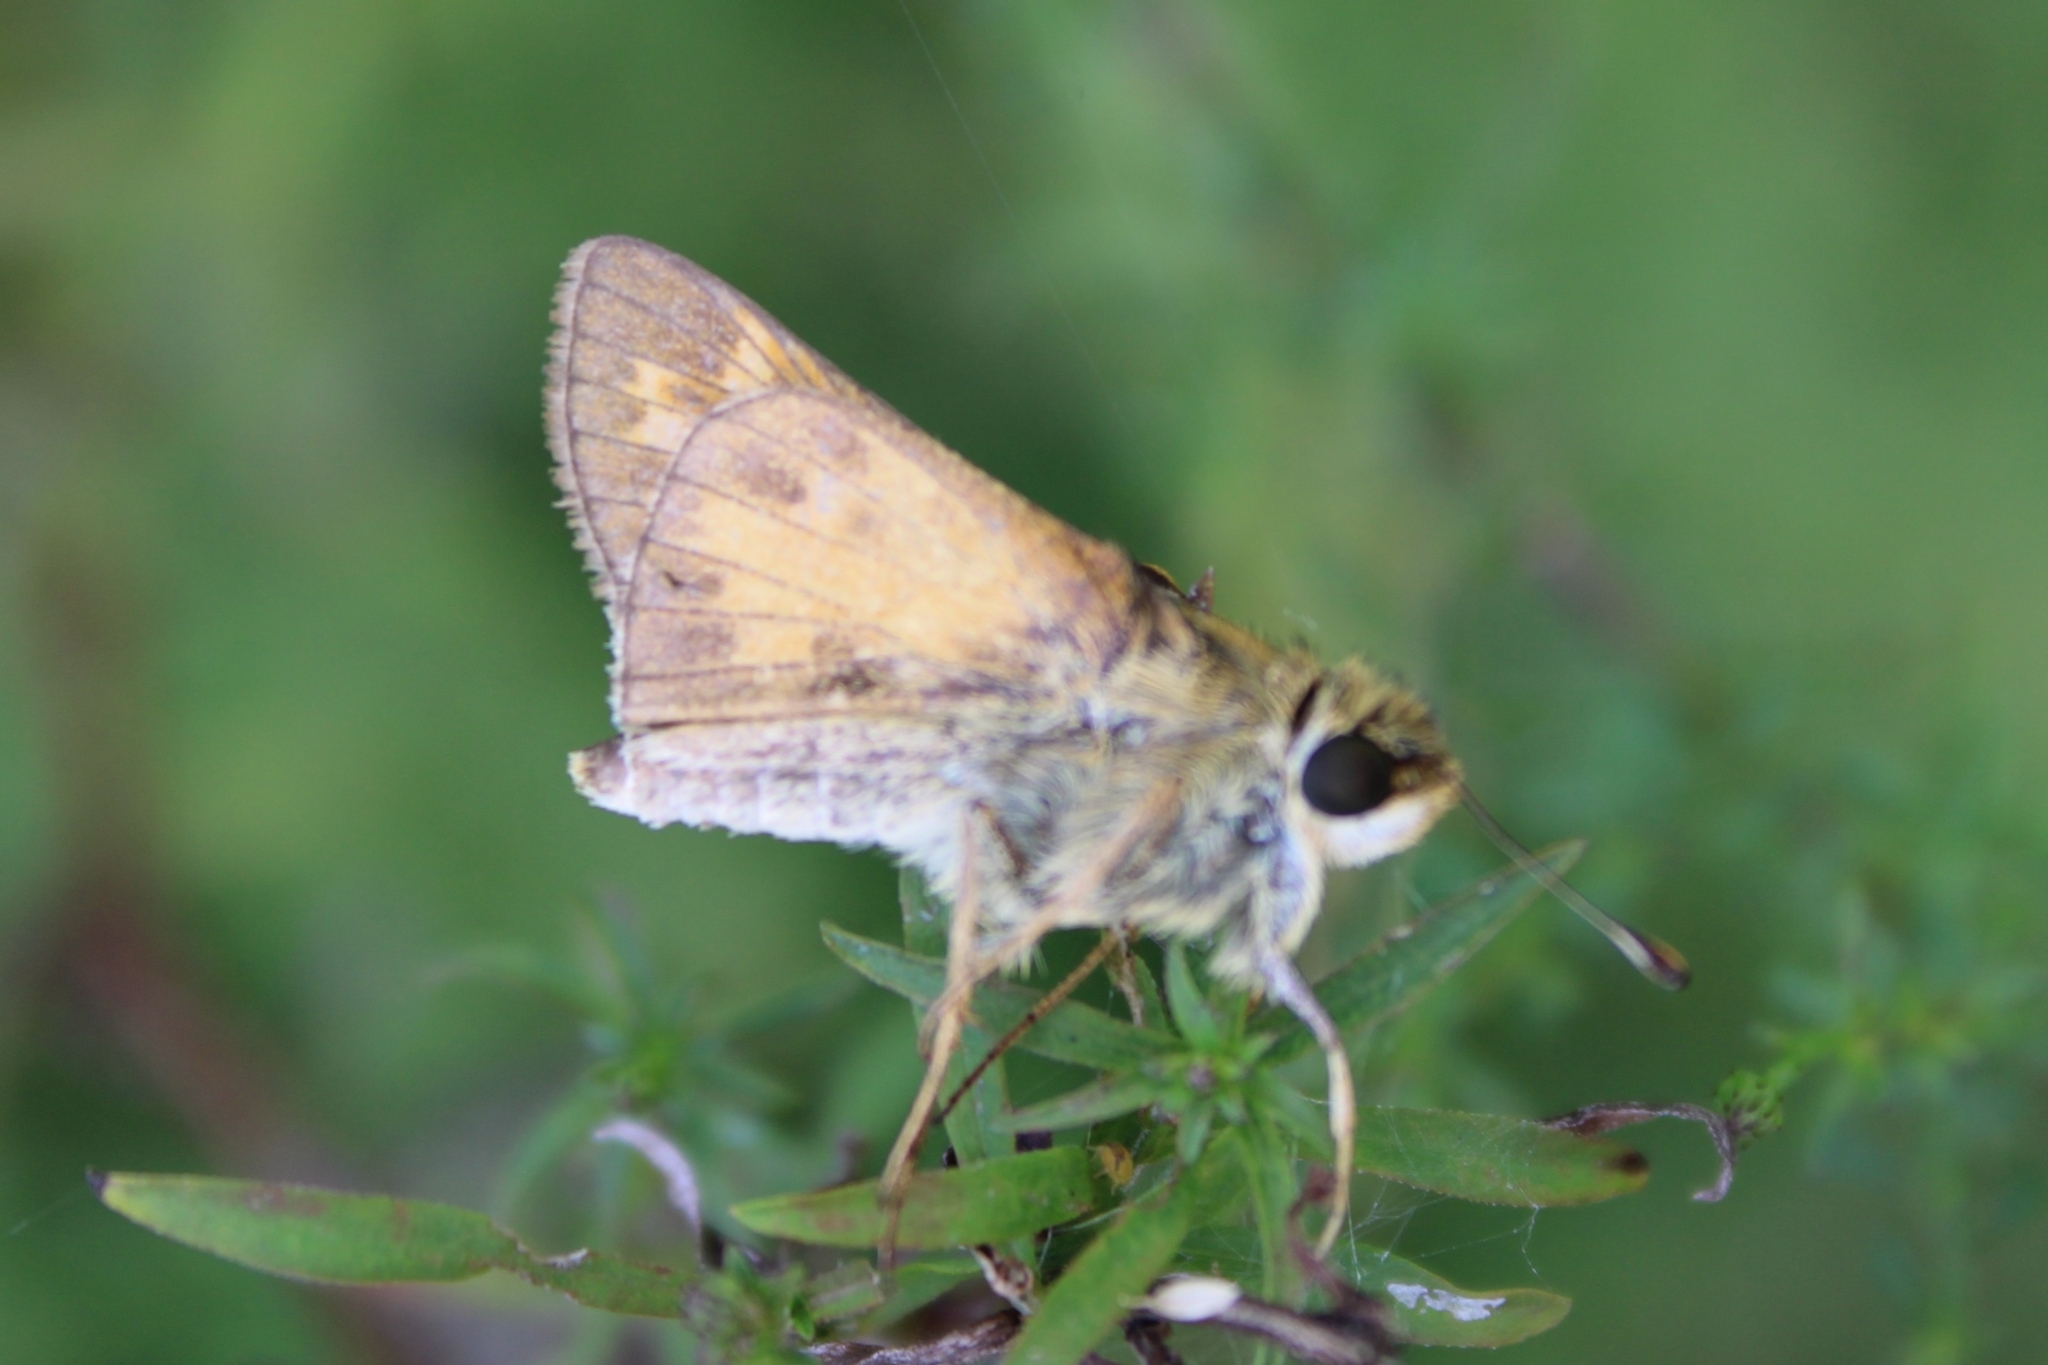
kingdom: Animalia
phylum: Arthropoda
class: Insecta
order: Lepidoptera
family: Hesperiidae
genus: Atalopedes
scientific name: Atalopedes
